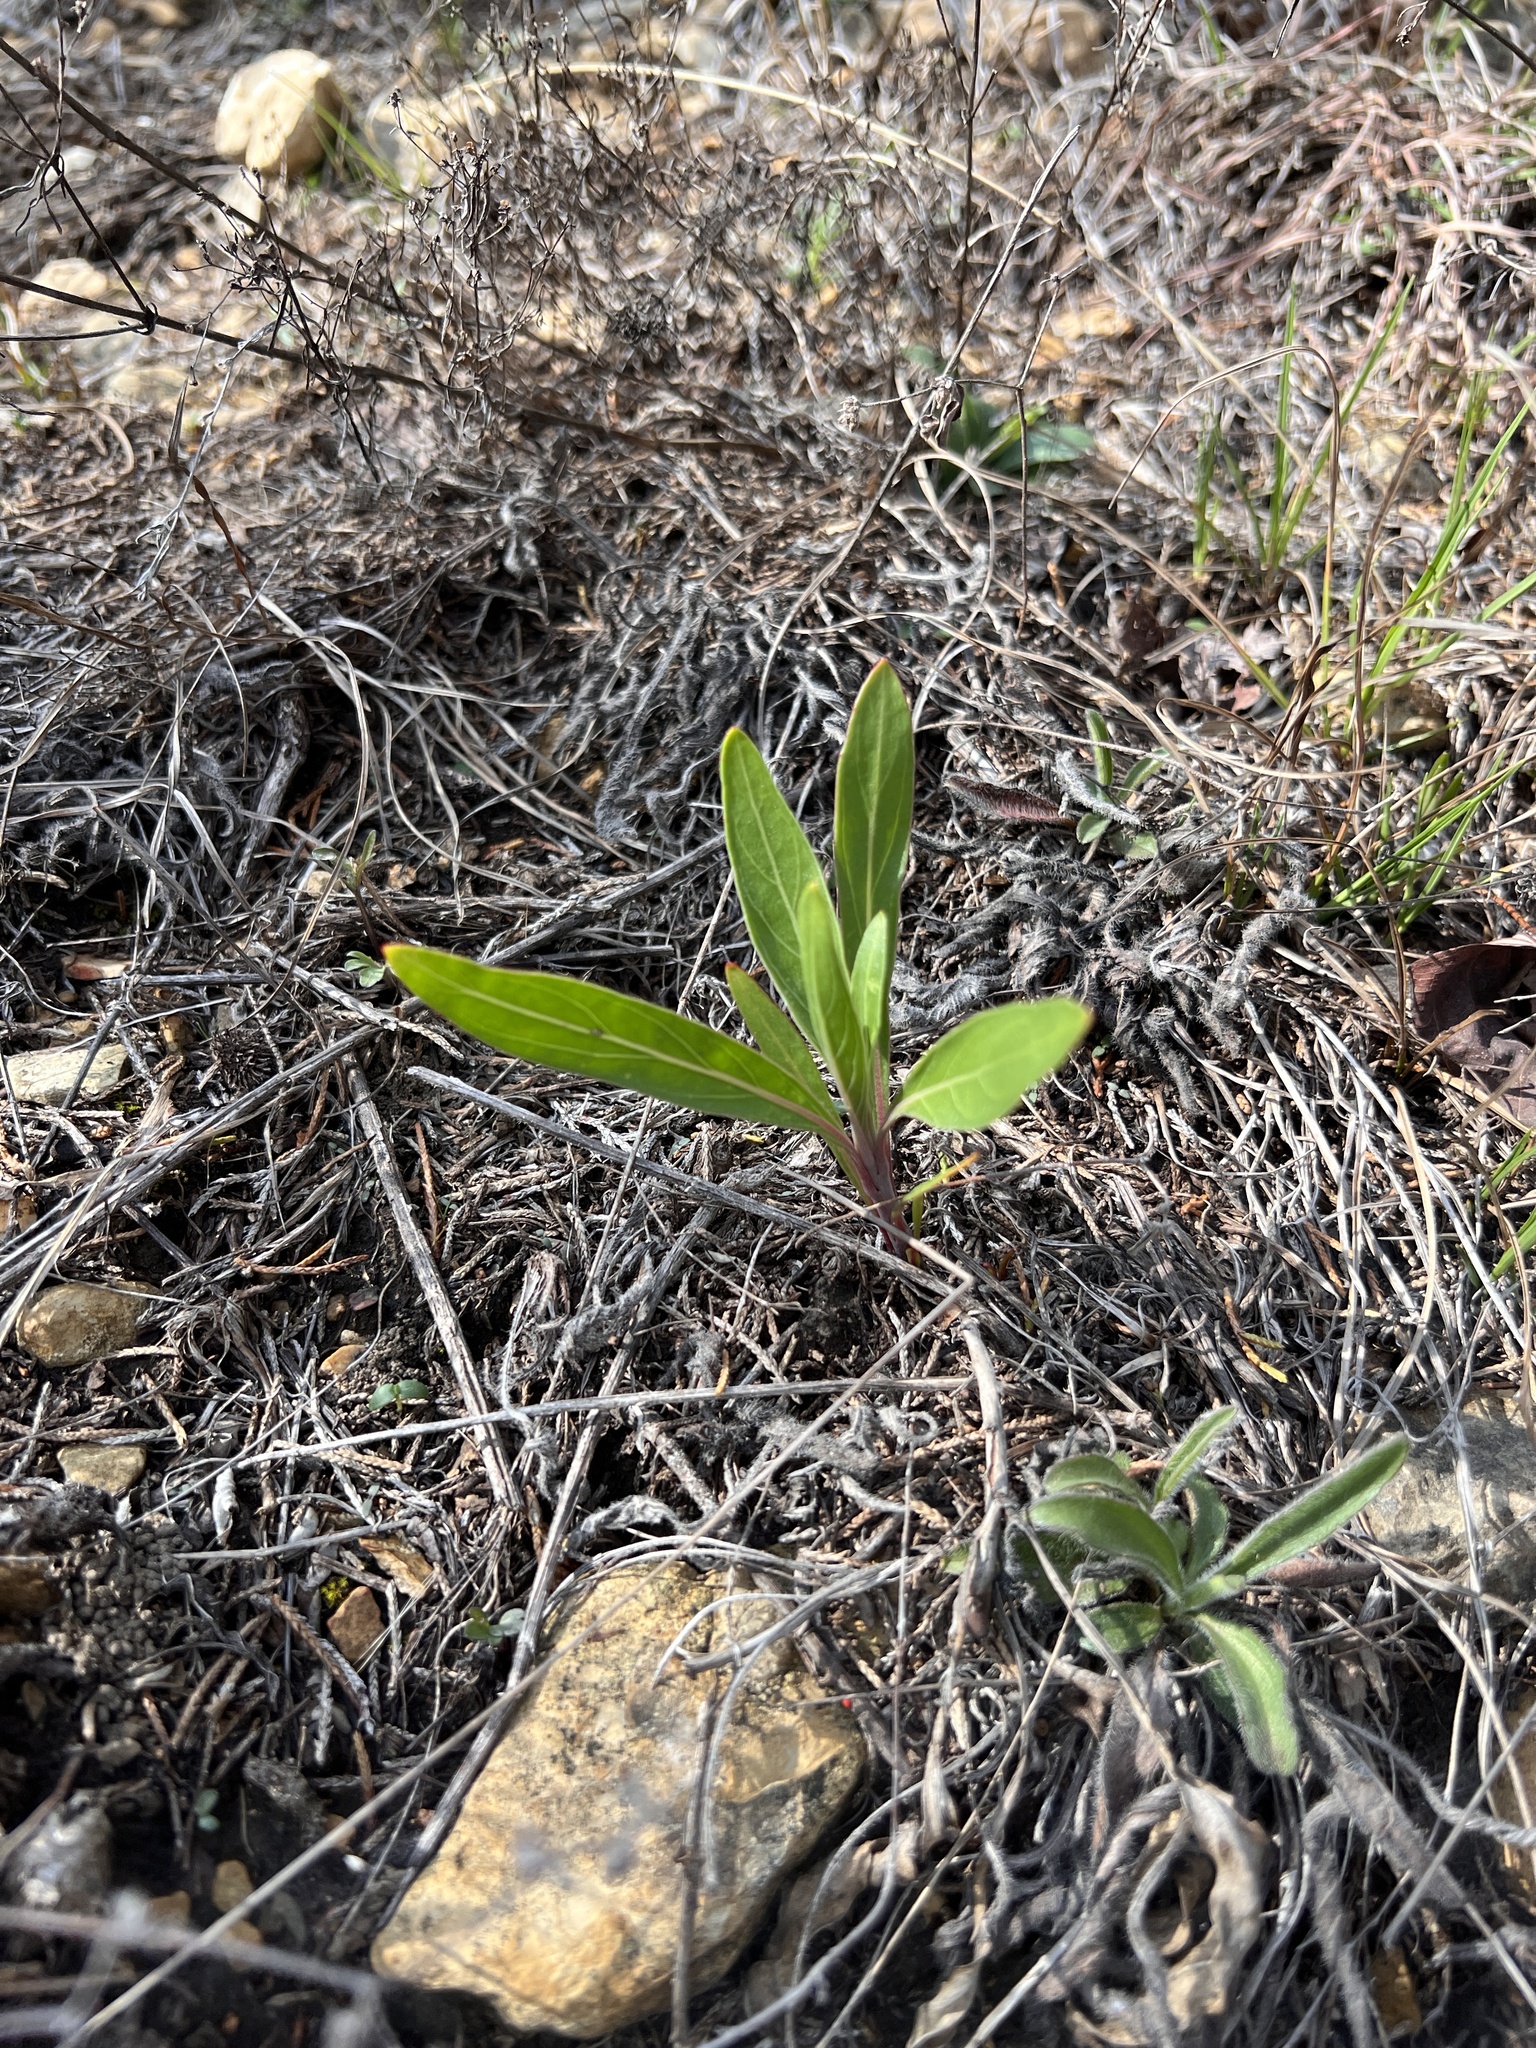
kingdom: Plantae
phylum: Tracheophyta
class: Magnoliopsida
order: Myrtales
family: Onagraceae
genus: Oenothera
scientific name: Oenothera macrocarpa
